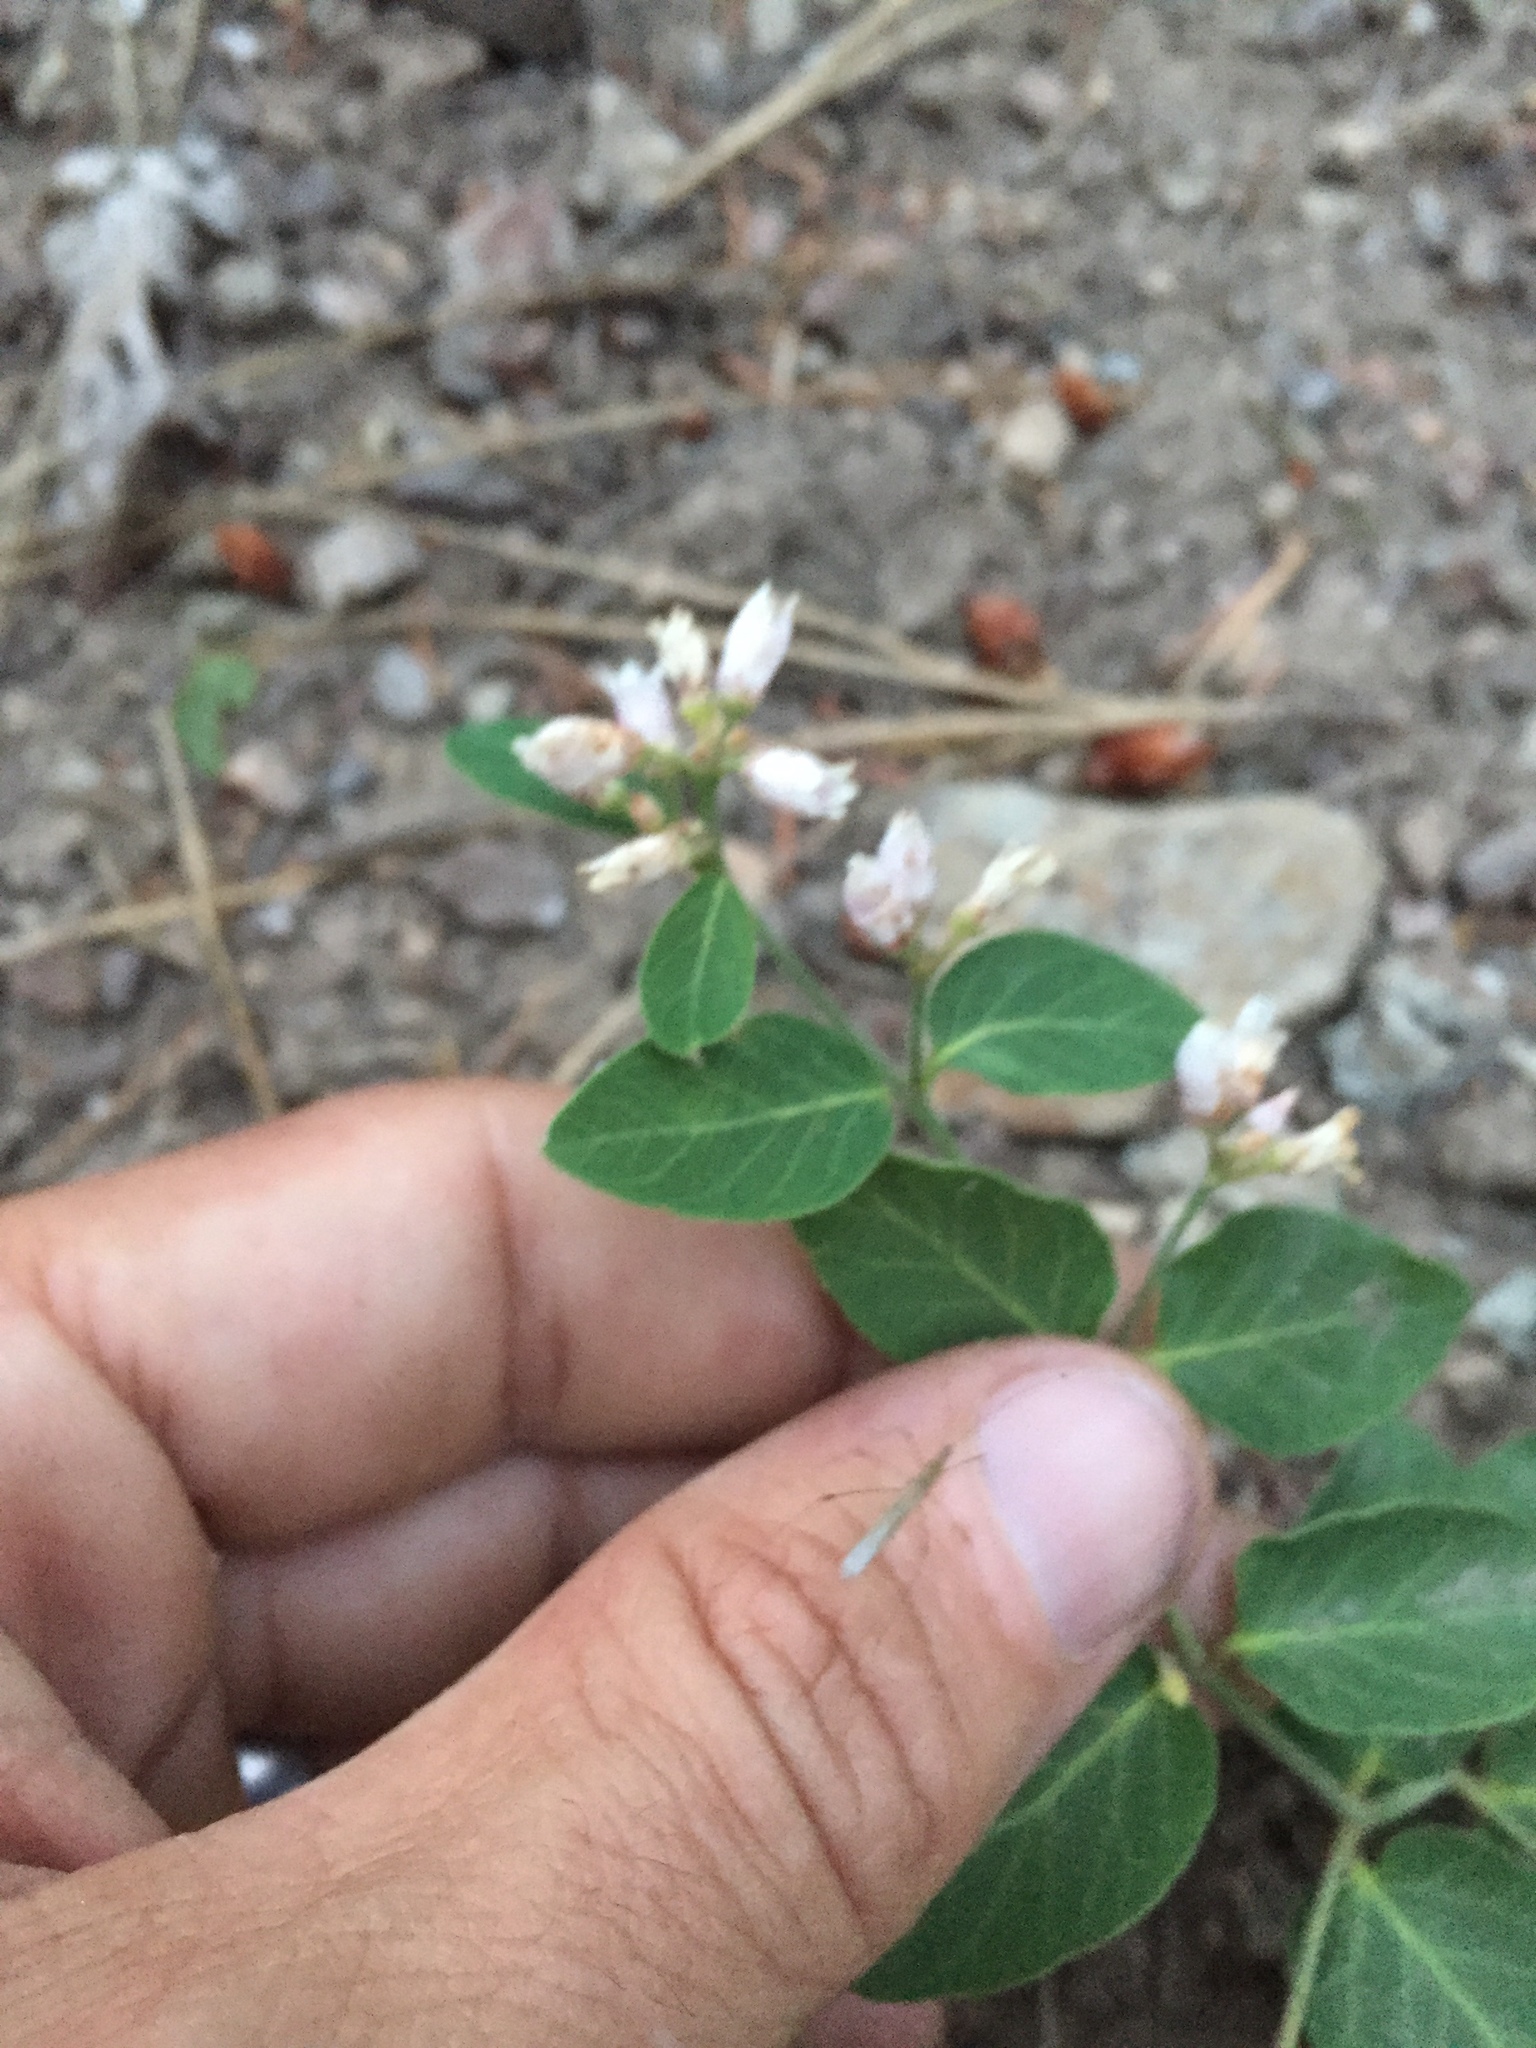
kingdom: Plantae
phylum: Tracheophyta
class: Magnoliopsida
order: Gentianales
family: Apocynaceae
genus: Apocynum
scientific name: Apocynum androsaemifolium
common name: Spreading dogbane
